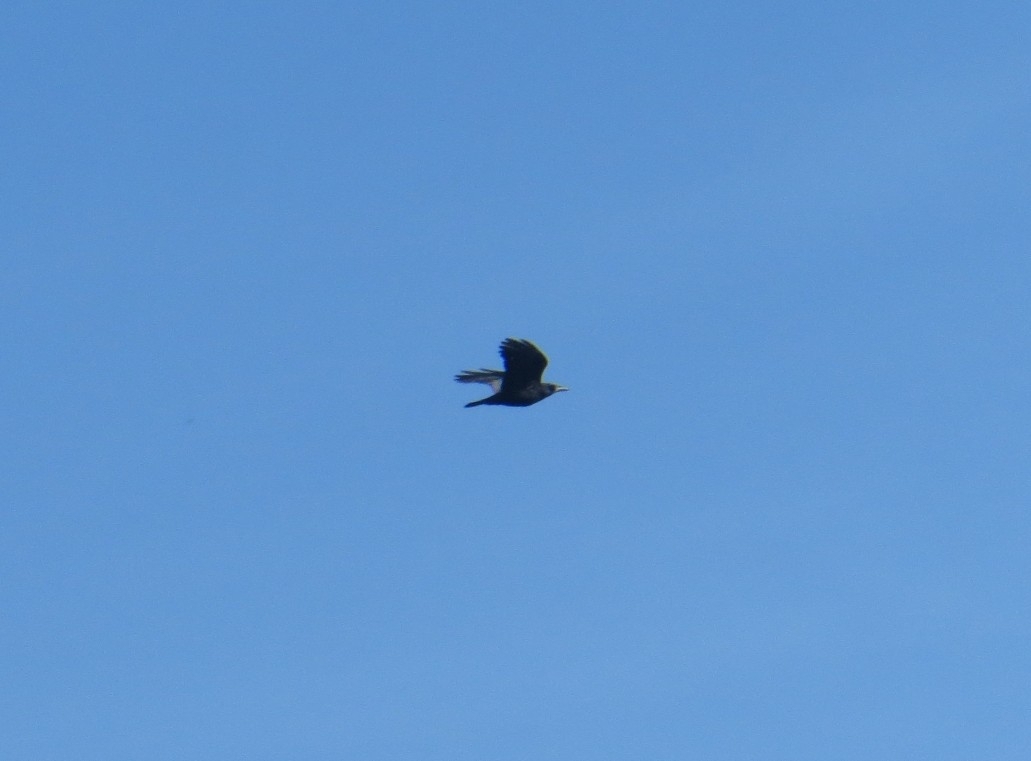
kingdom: Animalia
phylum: Chordata
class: Aves
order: Passeriformes
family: Corvidae
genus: Corvus
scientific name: Corvus frugilegus
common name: Rook
